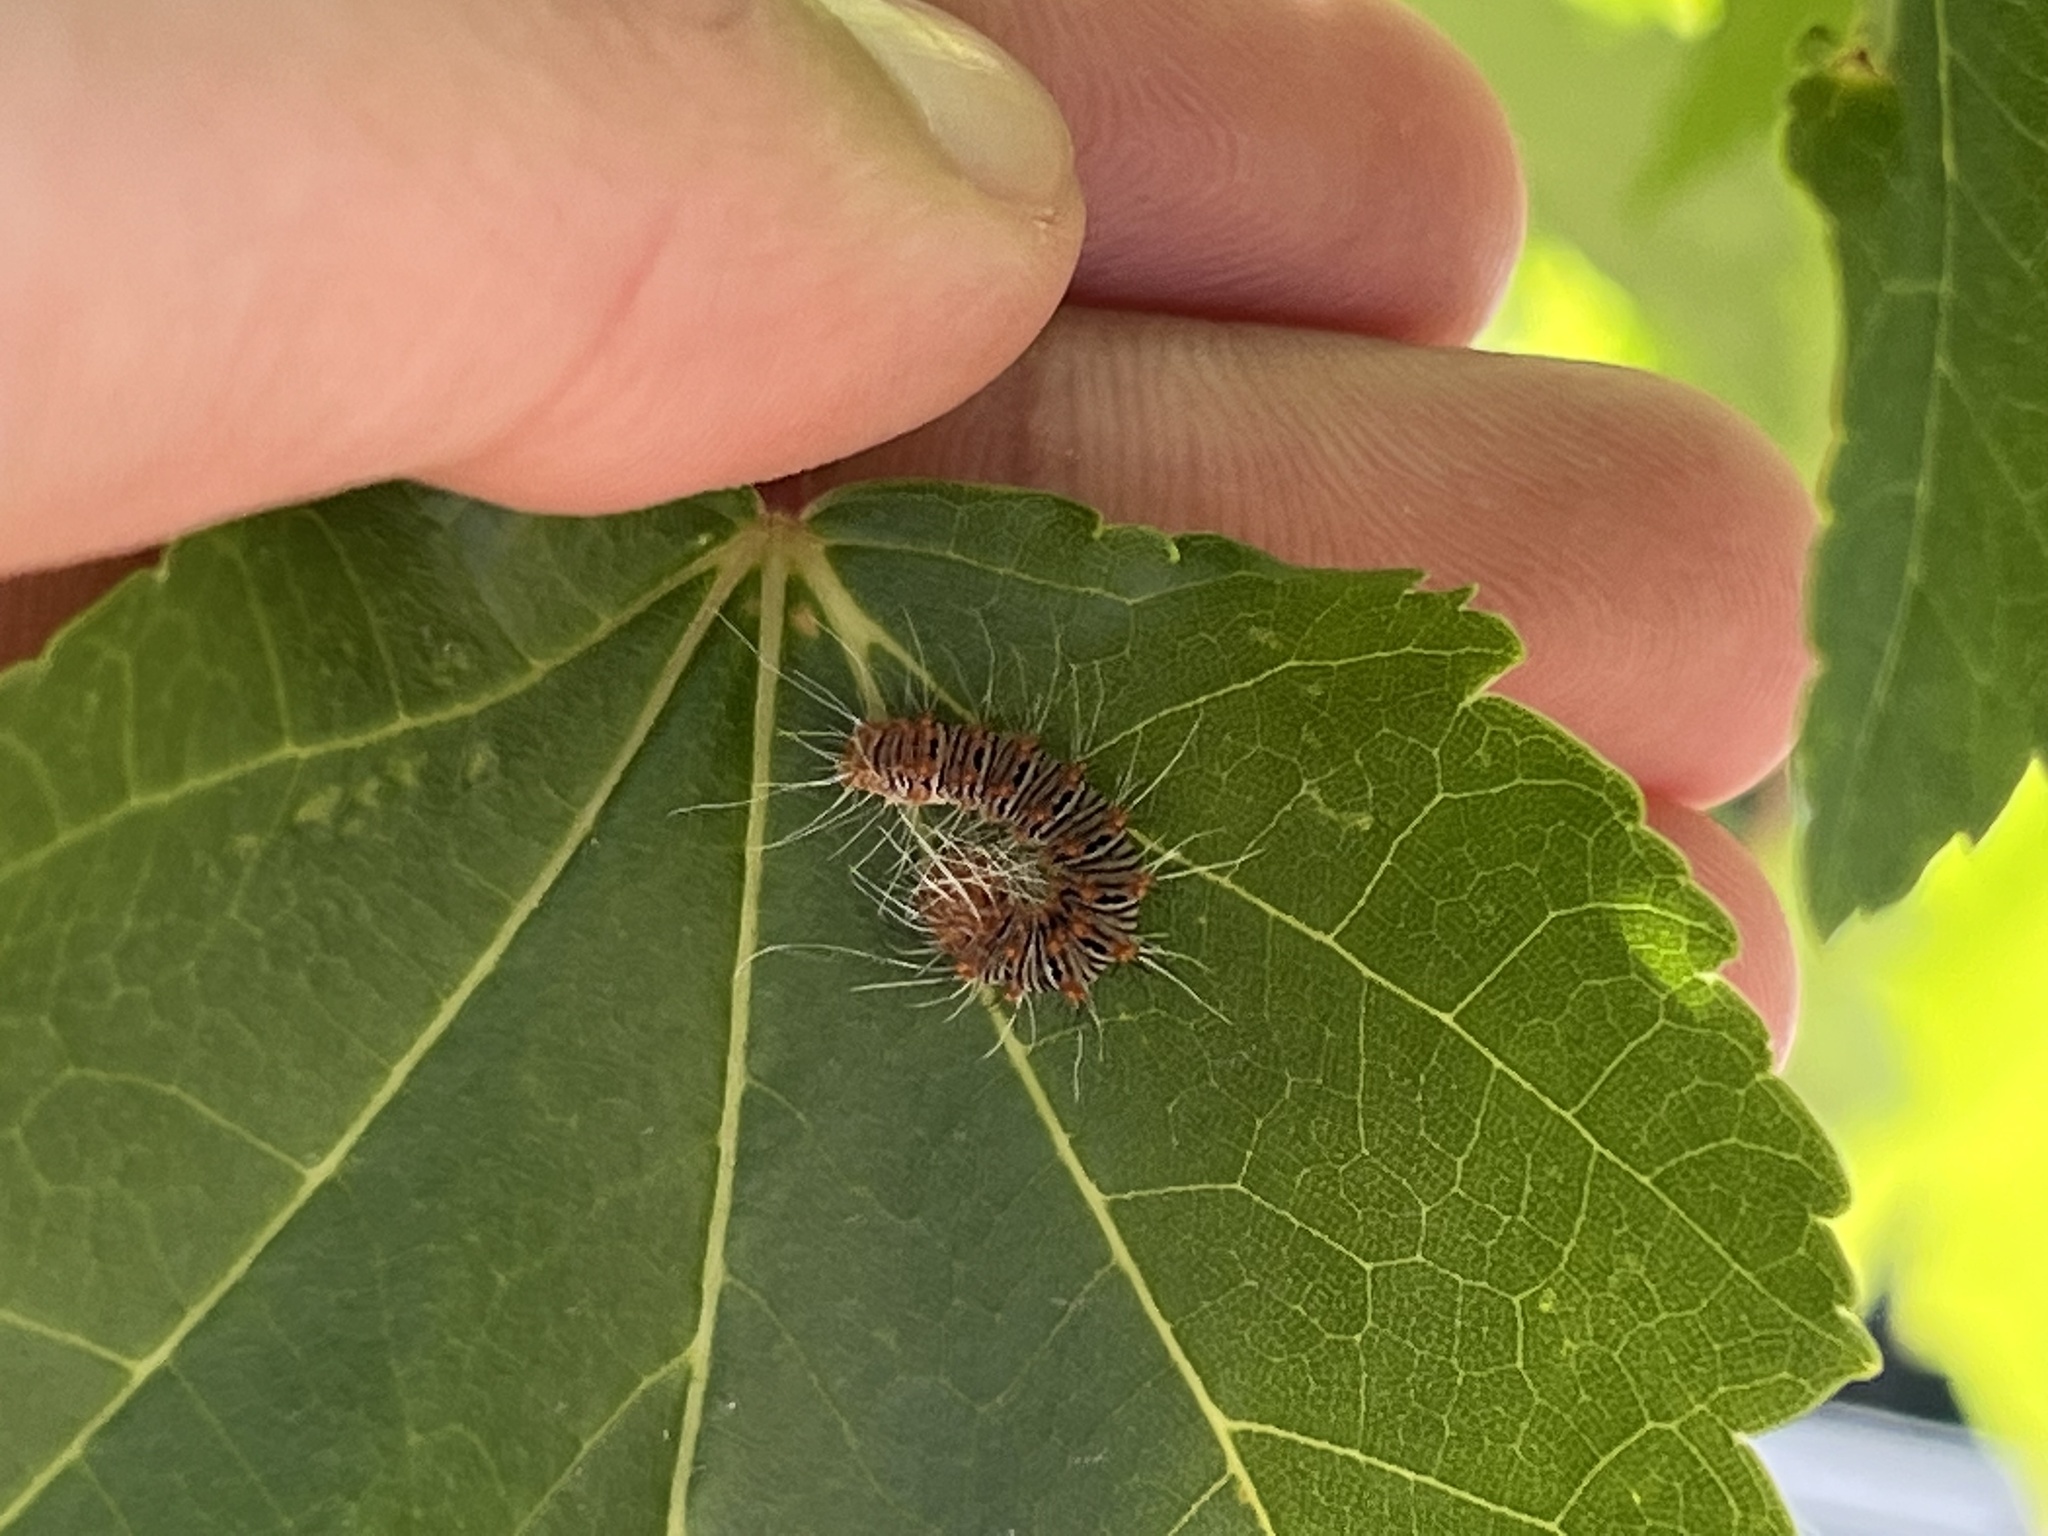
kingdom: Animalia
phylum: Arthropoda
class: Insecta
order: Lepidoptera
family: Noctuidae
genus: Acronicta
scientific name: Acronicta retardata
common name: Maple dagger
